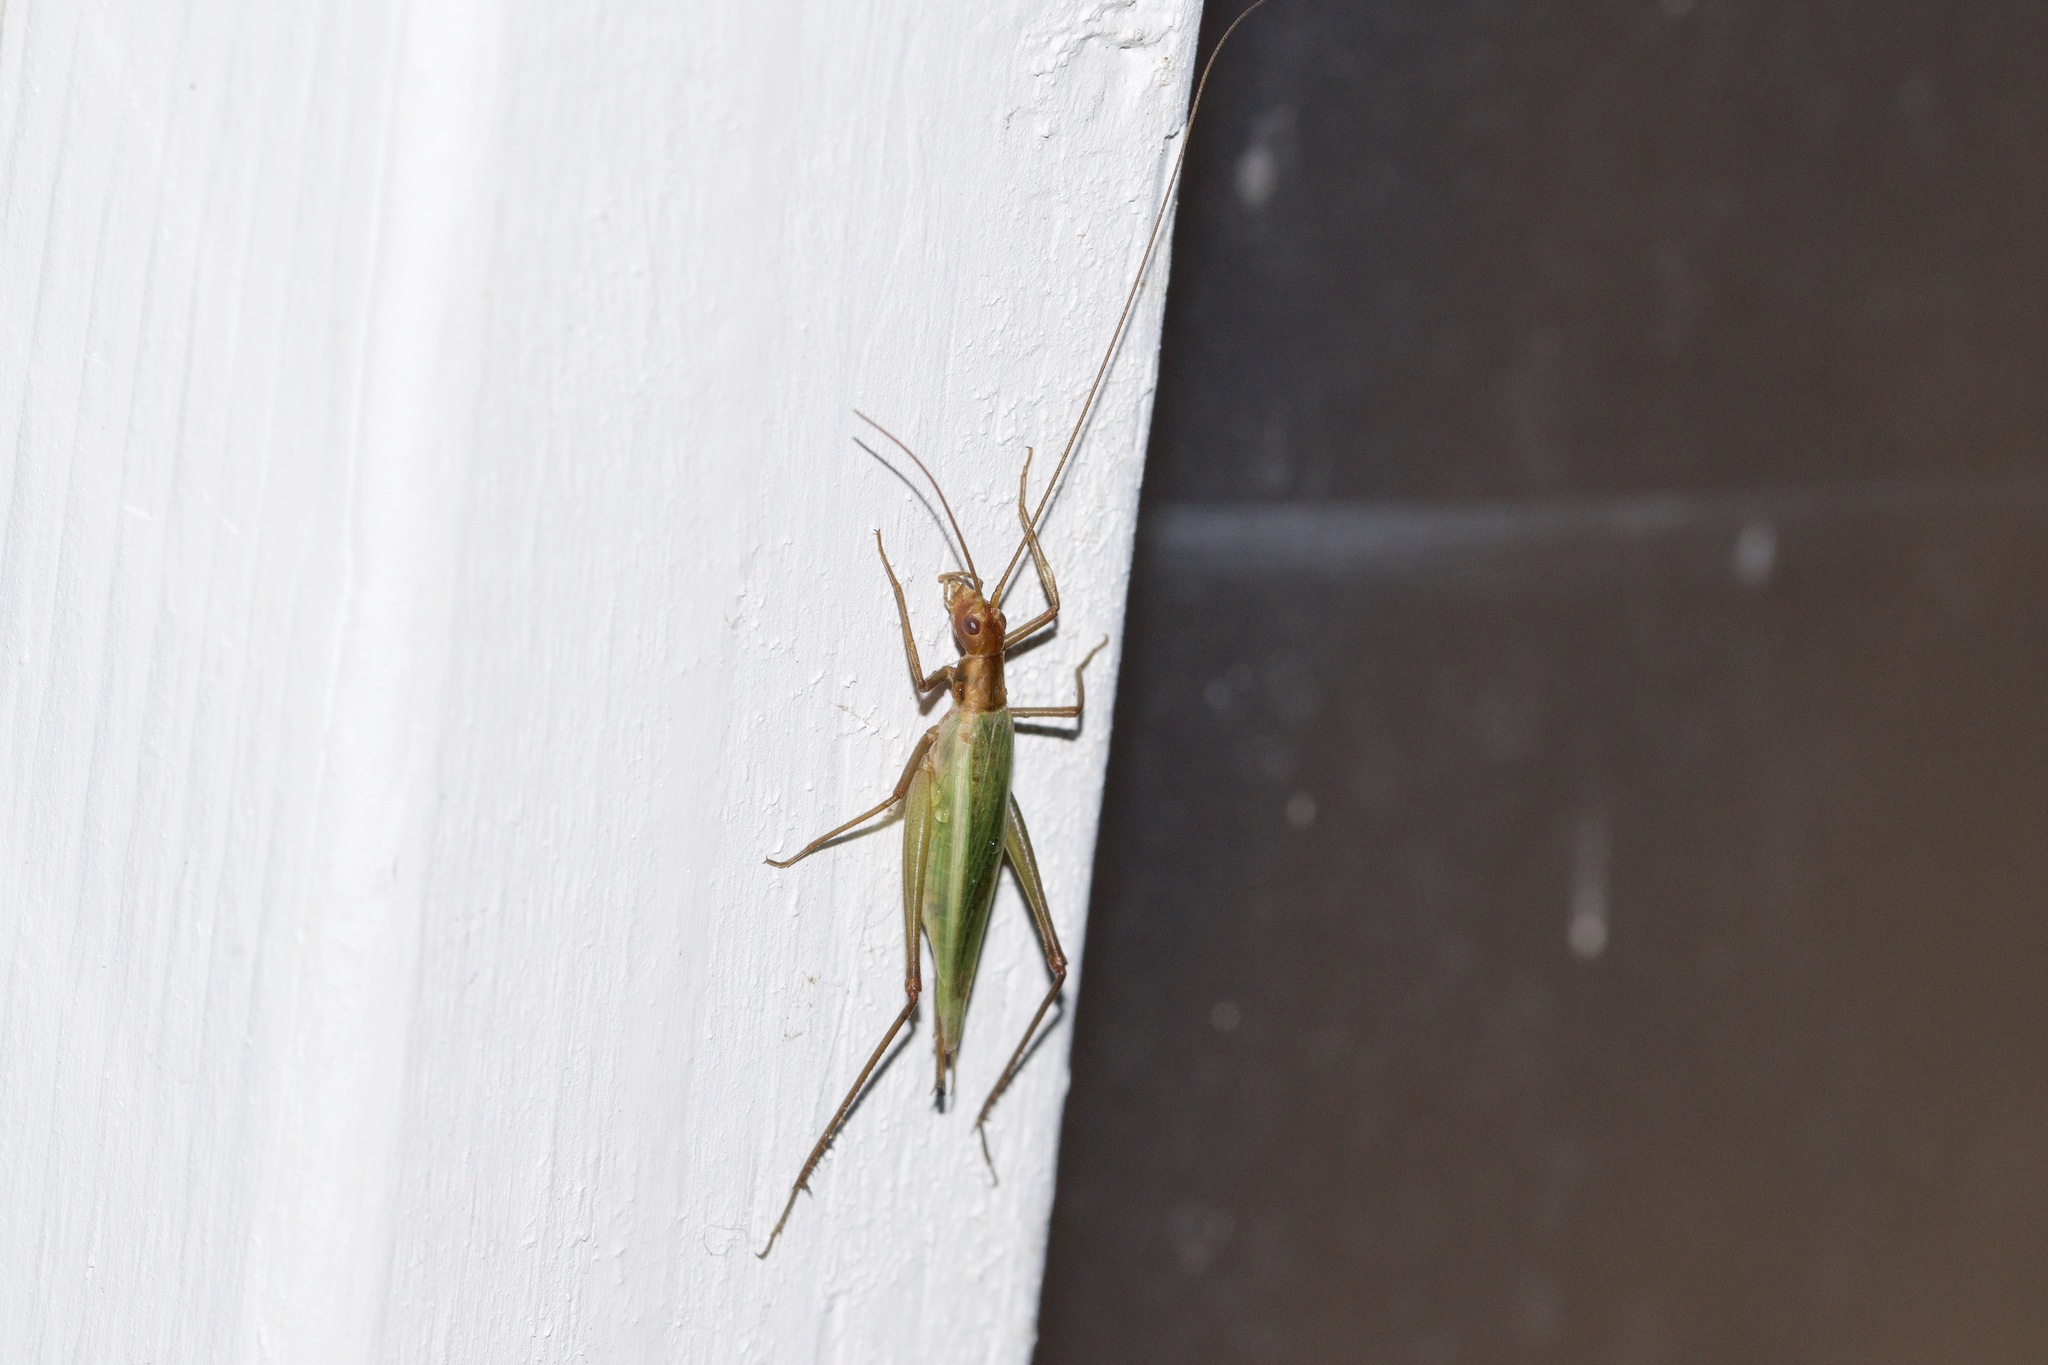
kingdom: Animalia
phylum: Arthropoda
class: Insecta
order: Orthoptera
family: Gryllidae
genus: Oecanthus
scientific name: Oecanthus pini
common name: Pine tree cricket
